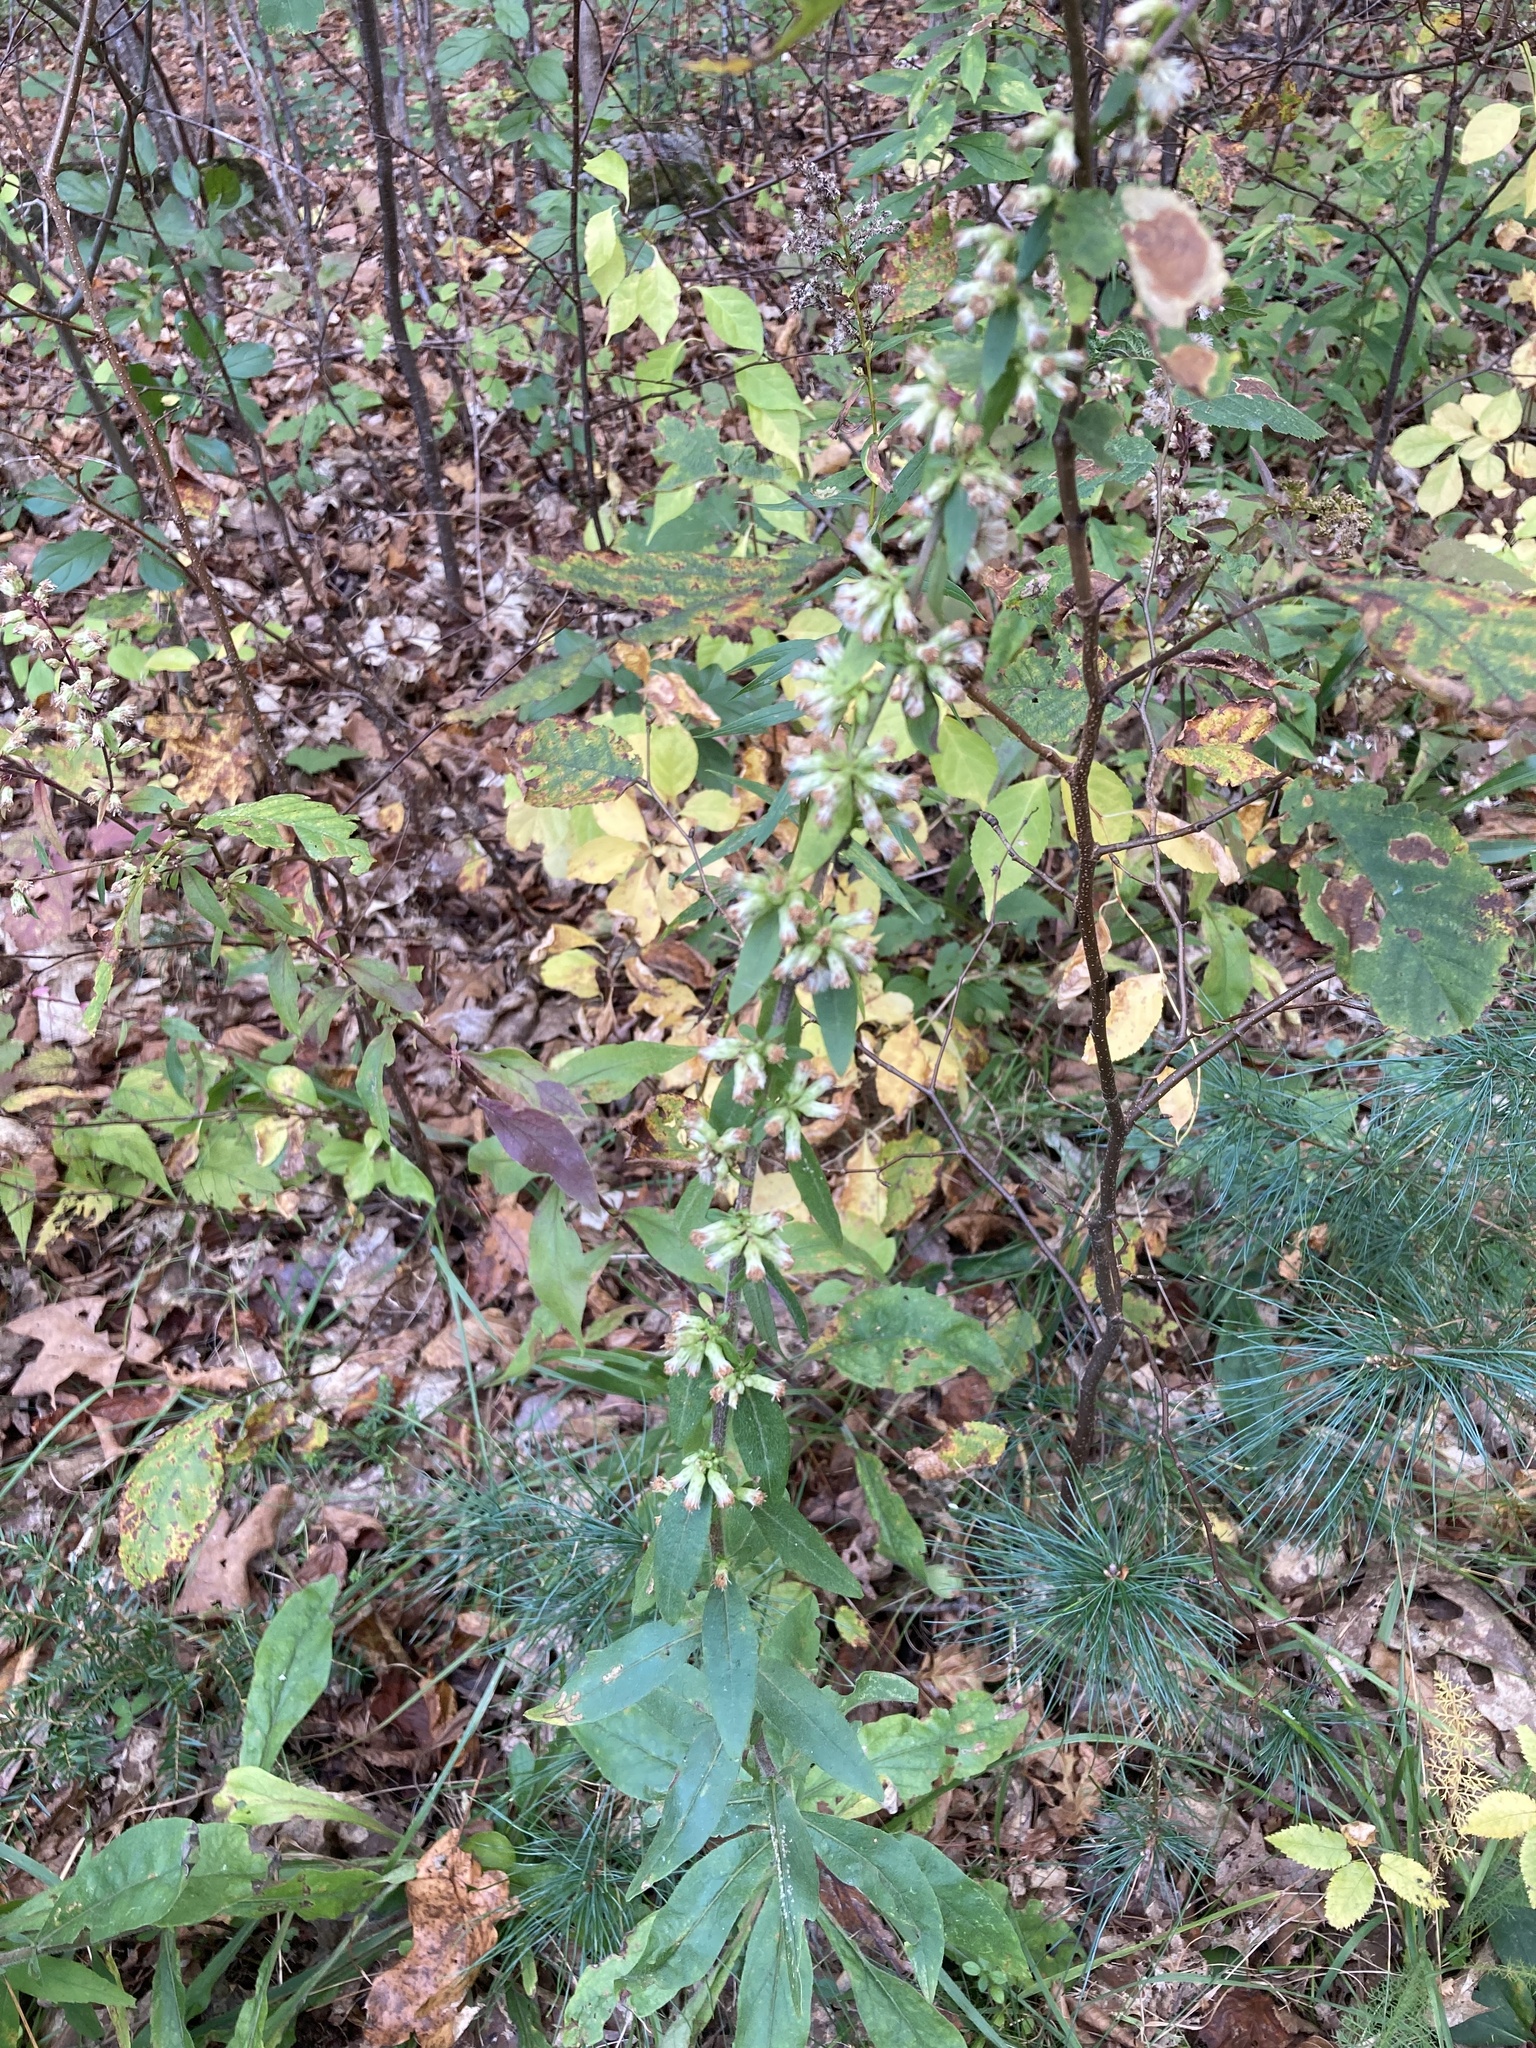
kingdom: Plantae
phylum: Tracheophyta
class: Magnoliopsida
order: Asterales
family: Asteraceae
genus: Solidago
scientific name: Solidago bicolor
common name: Silverrod
